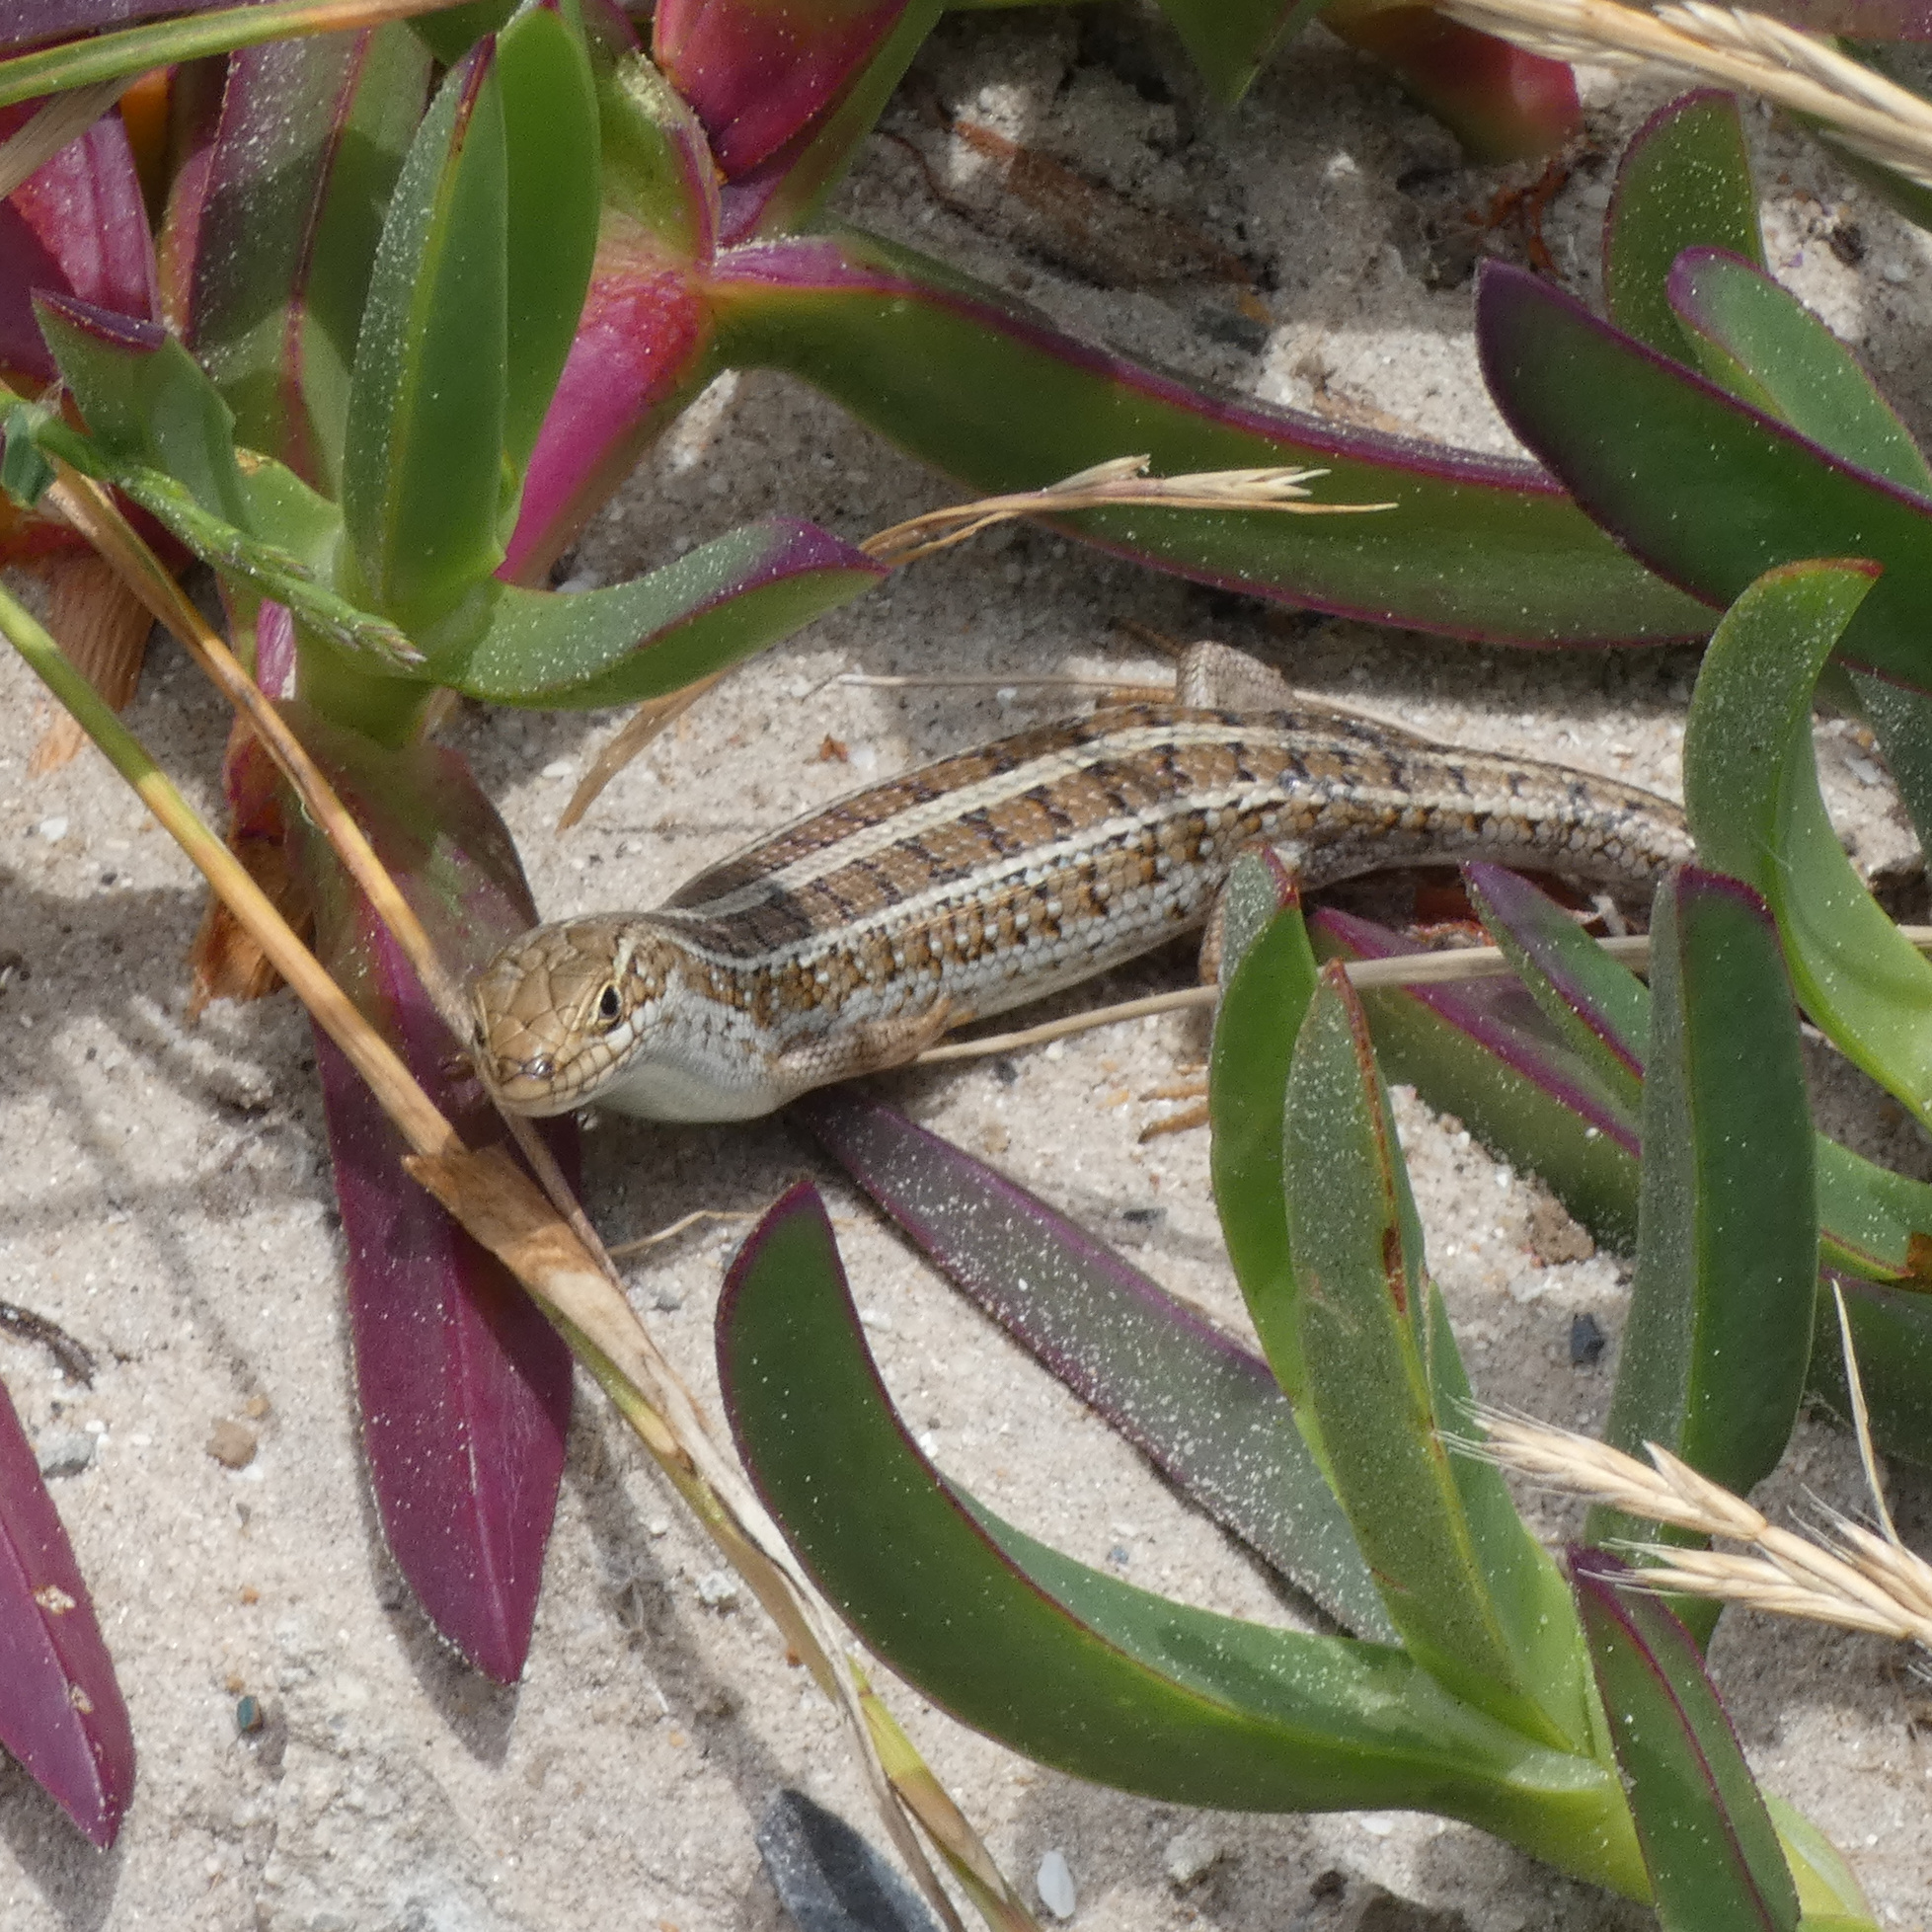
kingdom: Animalia
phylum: Chordata
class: Squamata
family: Scincidae
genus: Trachylepis
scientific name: Trachylepis capensis
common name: Cape skink
